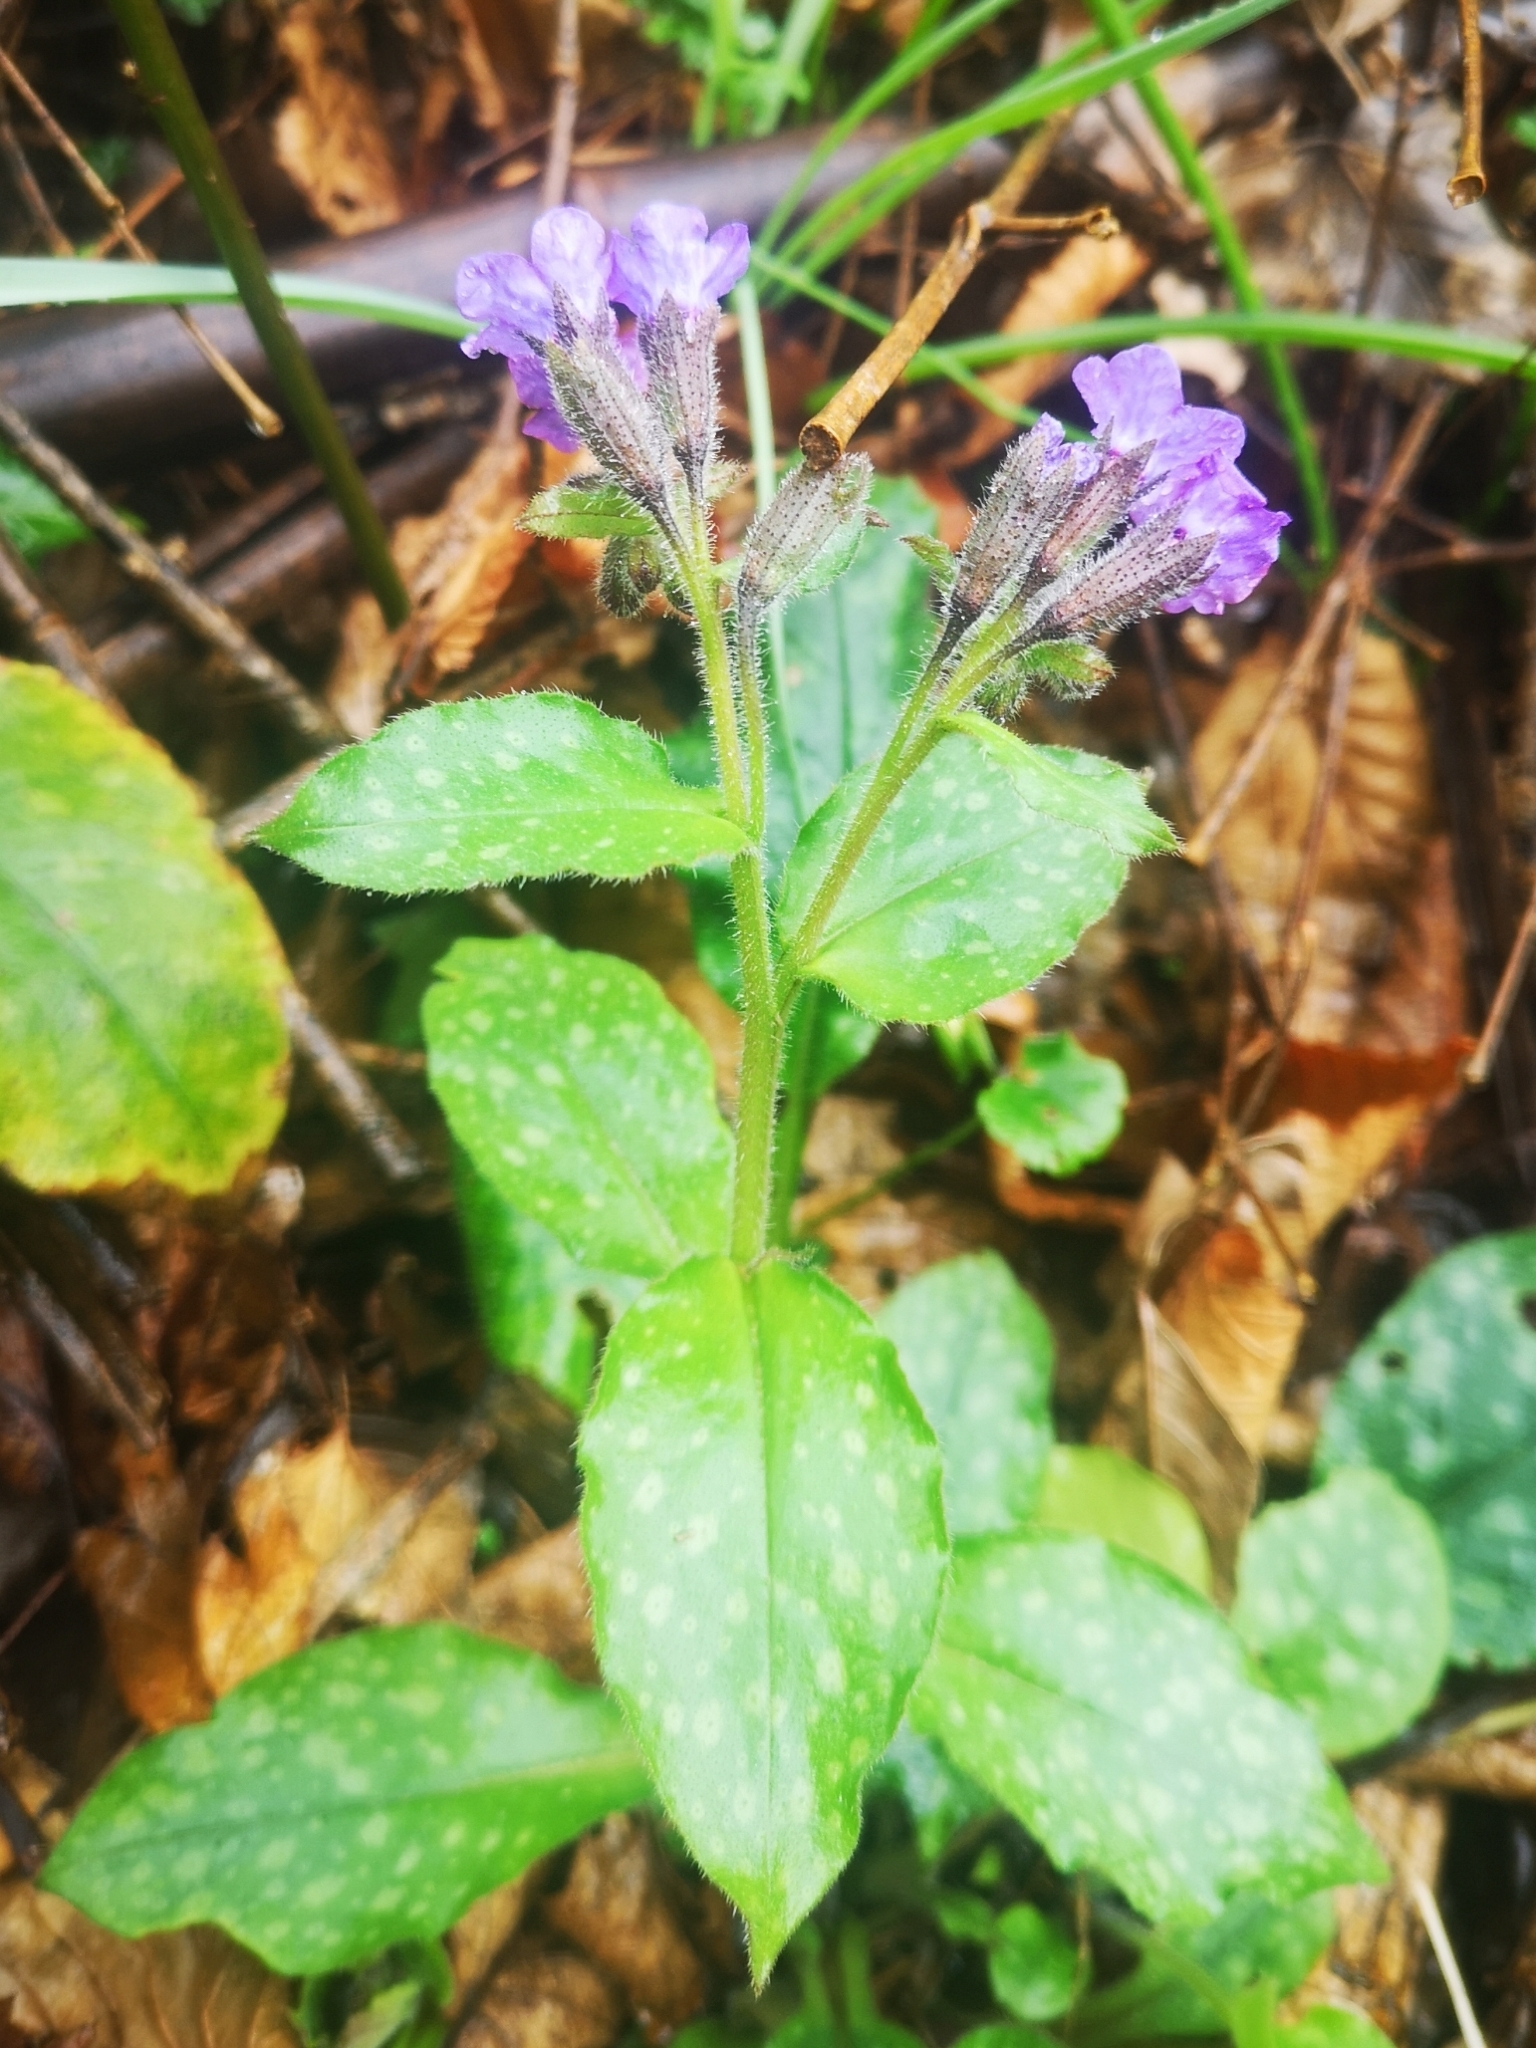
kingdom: Plantae
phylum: Tracheophyta
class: Magnoliopsida
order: Boraginales
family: Boraginaceae
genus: Pulmonaria
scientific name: Pulmonaria officinalis
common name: Lungwort
